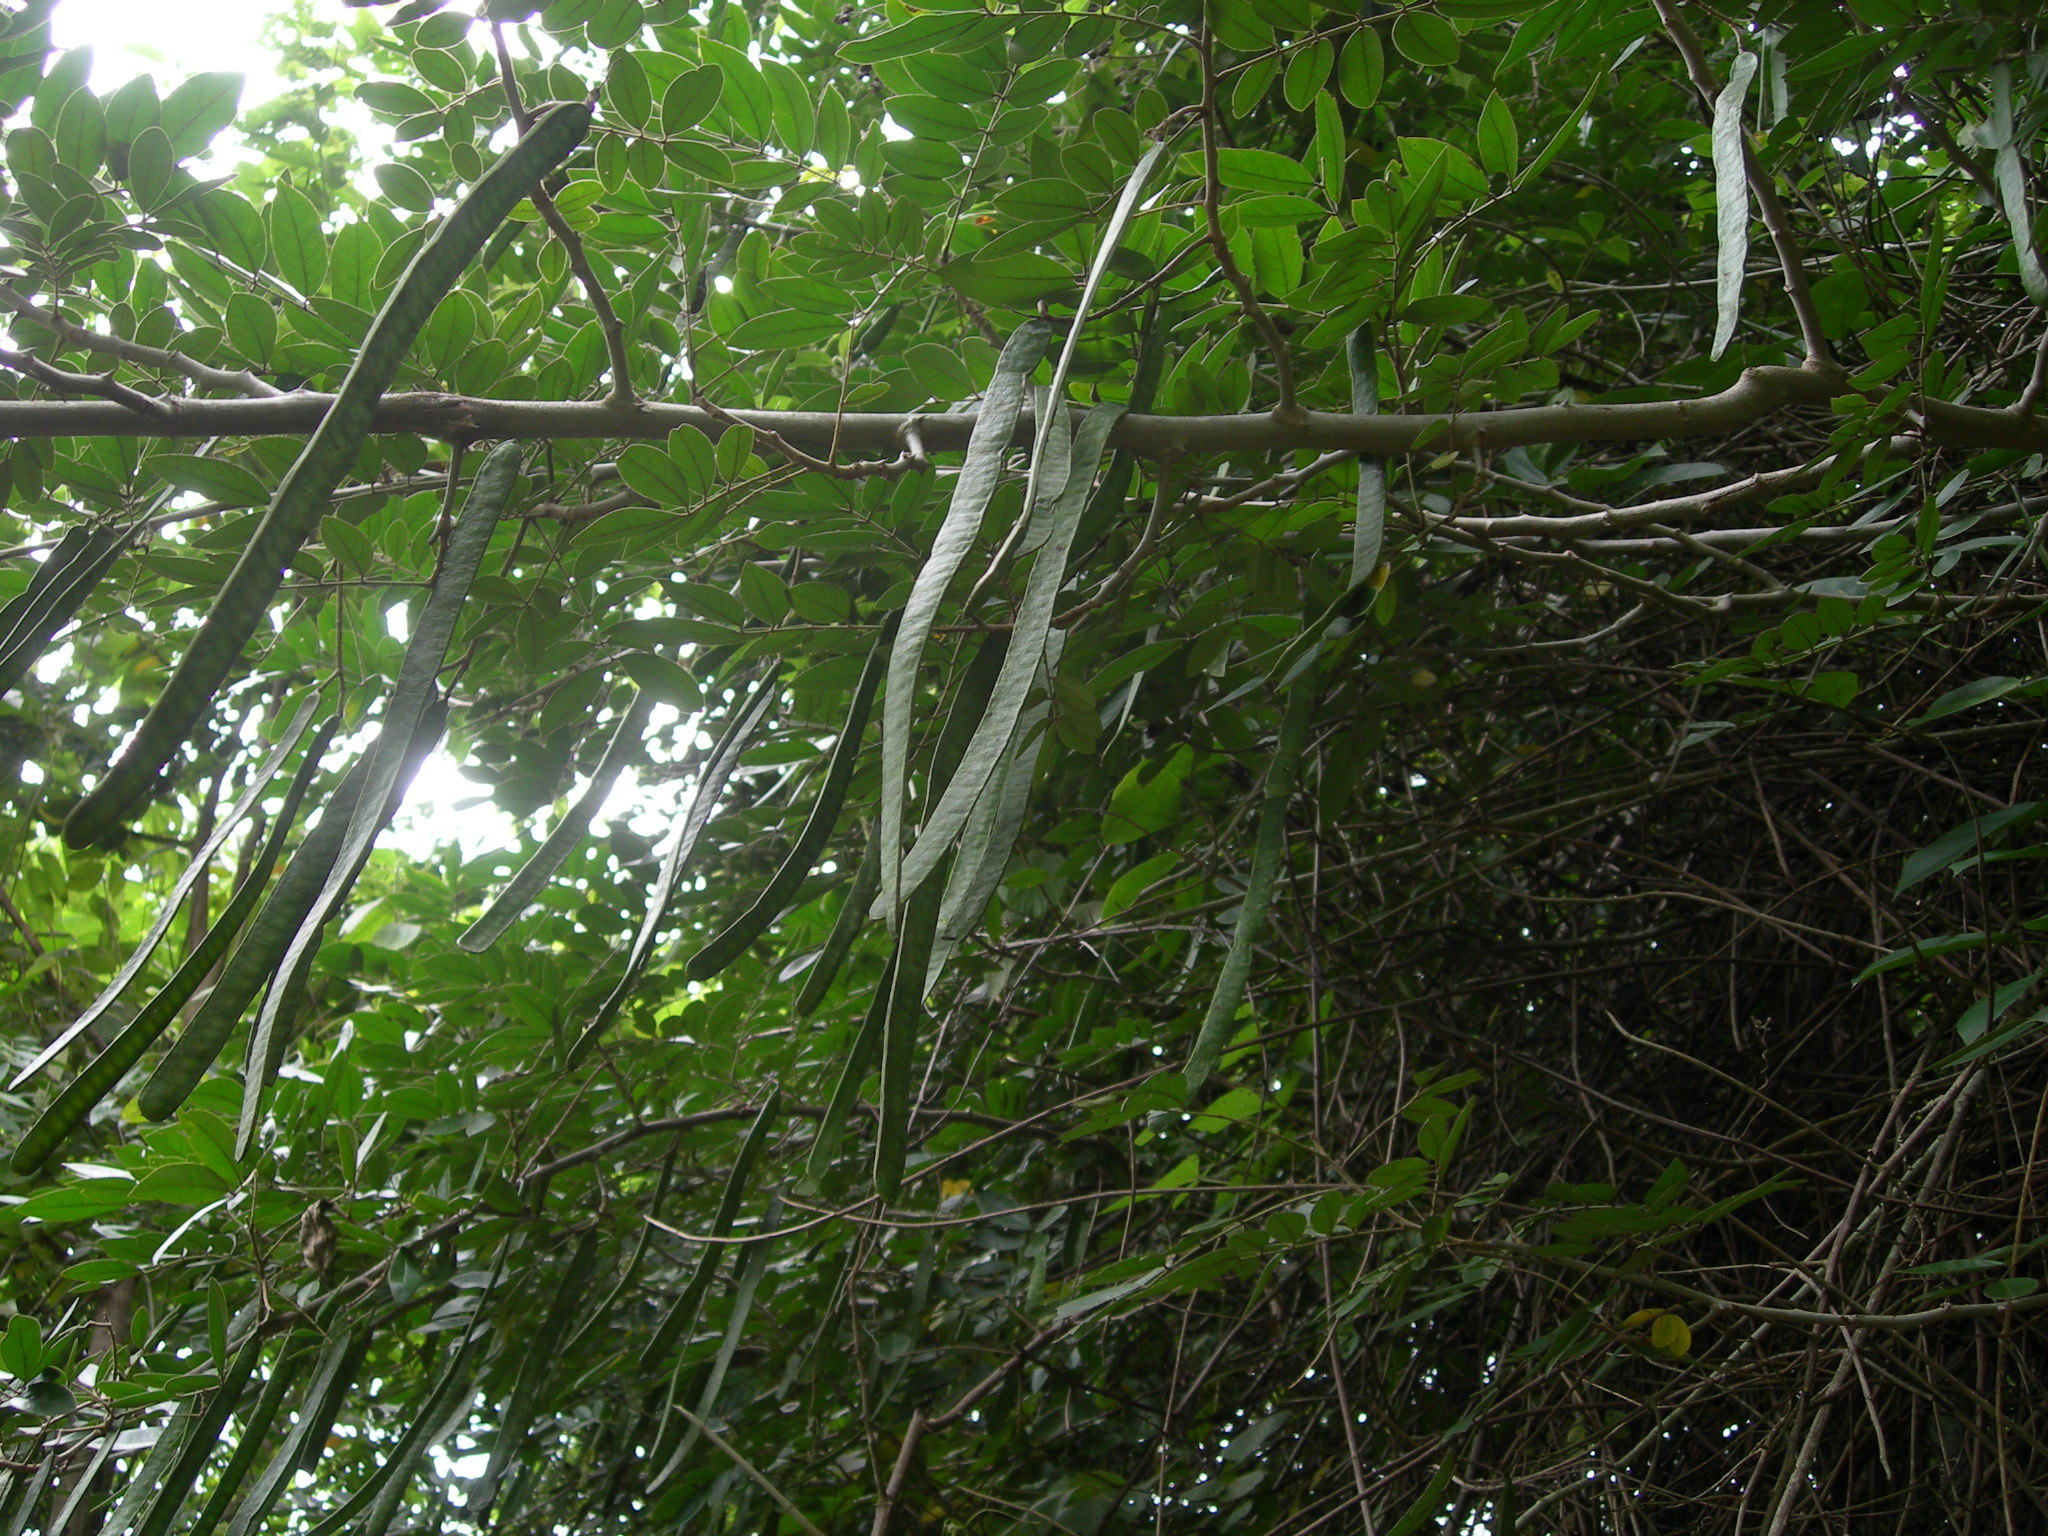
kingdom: Plantae
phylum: Tracheophyta
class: Magnoliopsida
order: Fabales
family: Fabaceae
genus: Senna
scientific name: Senna spectabilis
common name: Casia amarilla
